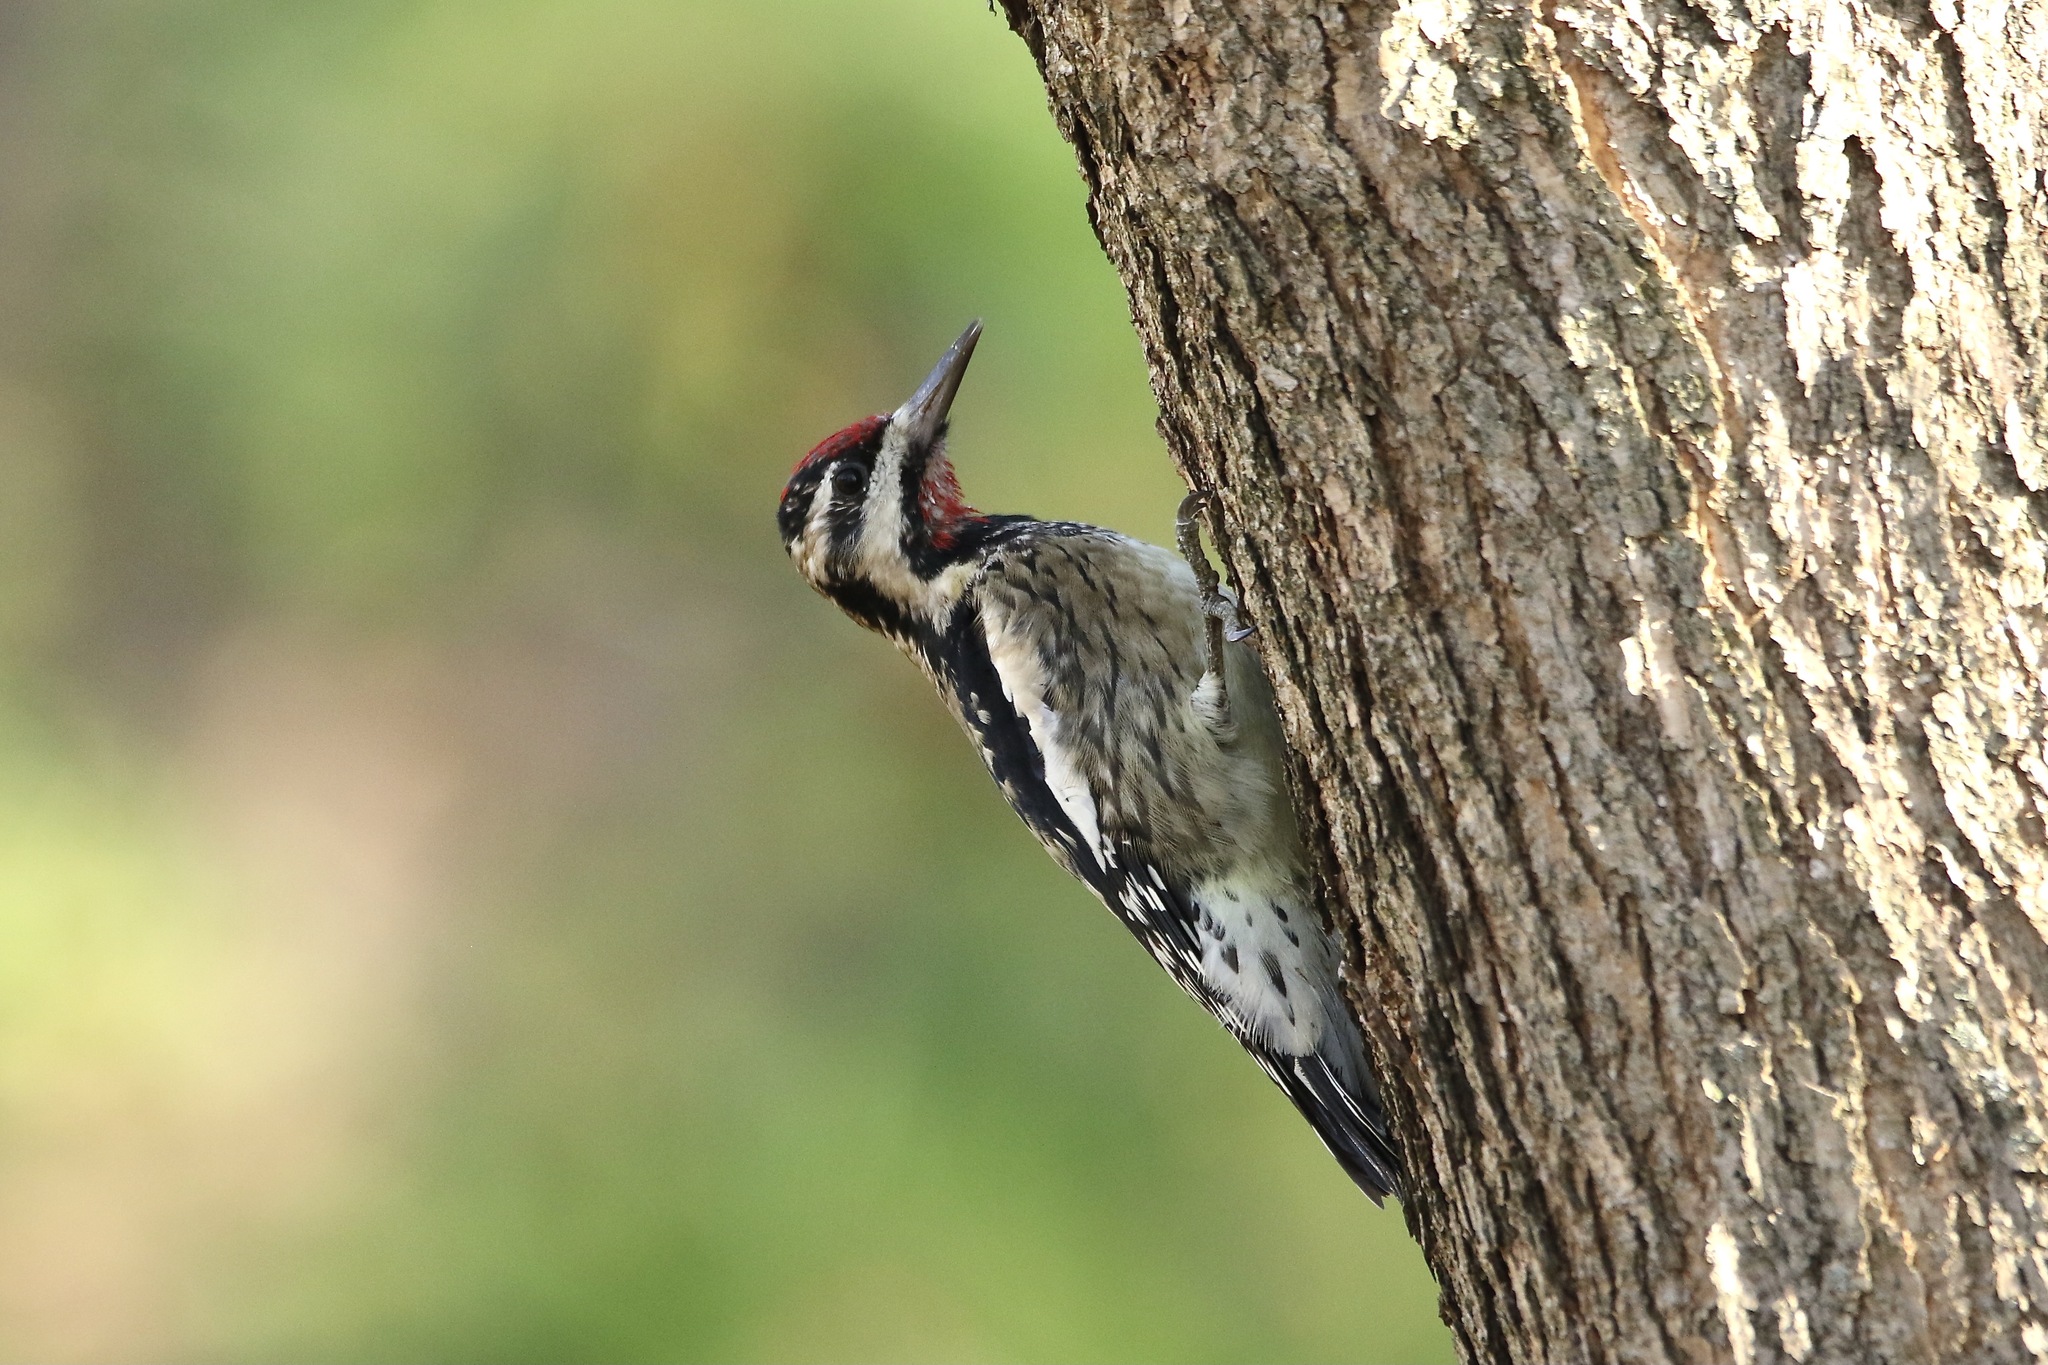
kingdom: Animalia
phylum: Chordata
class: Aves
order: Piciformes
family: Picidae
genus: Sphyrapicus
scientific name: Sphyrapicus varius
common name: Yellow-bellied sapsucker
